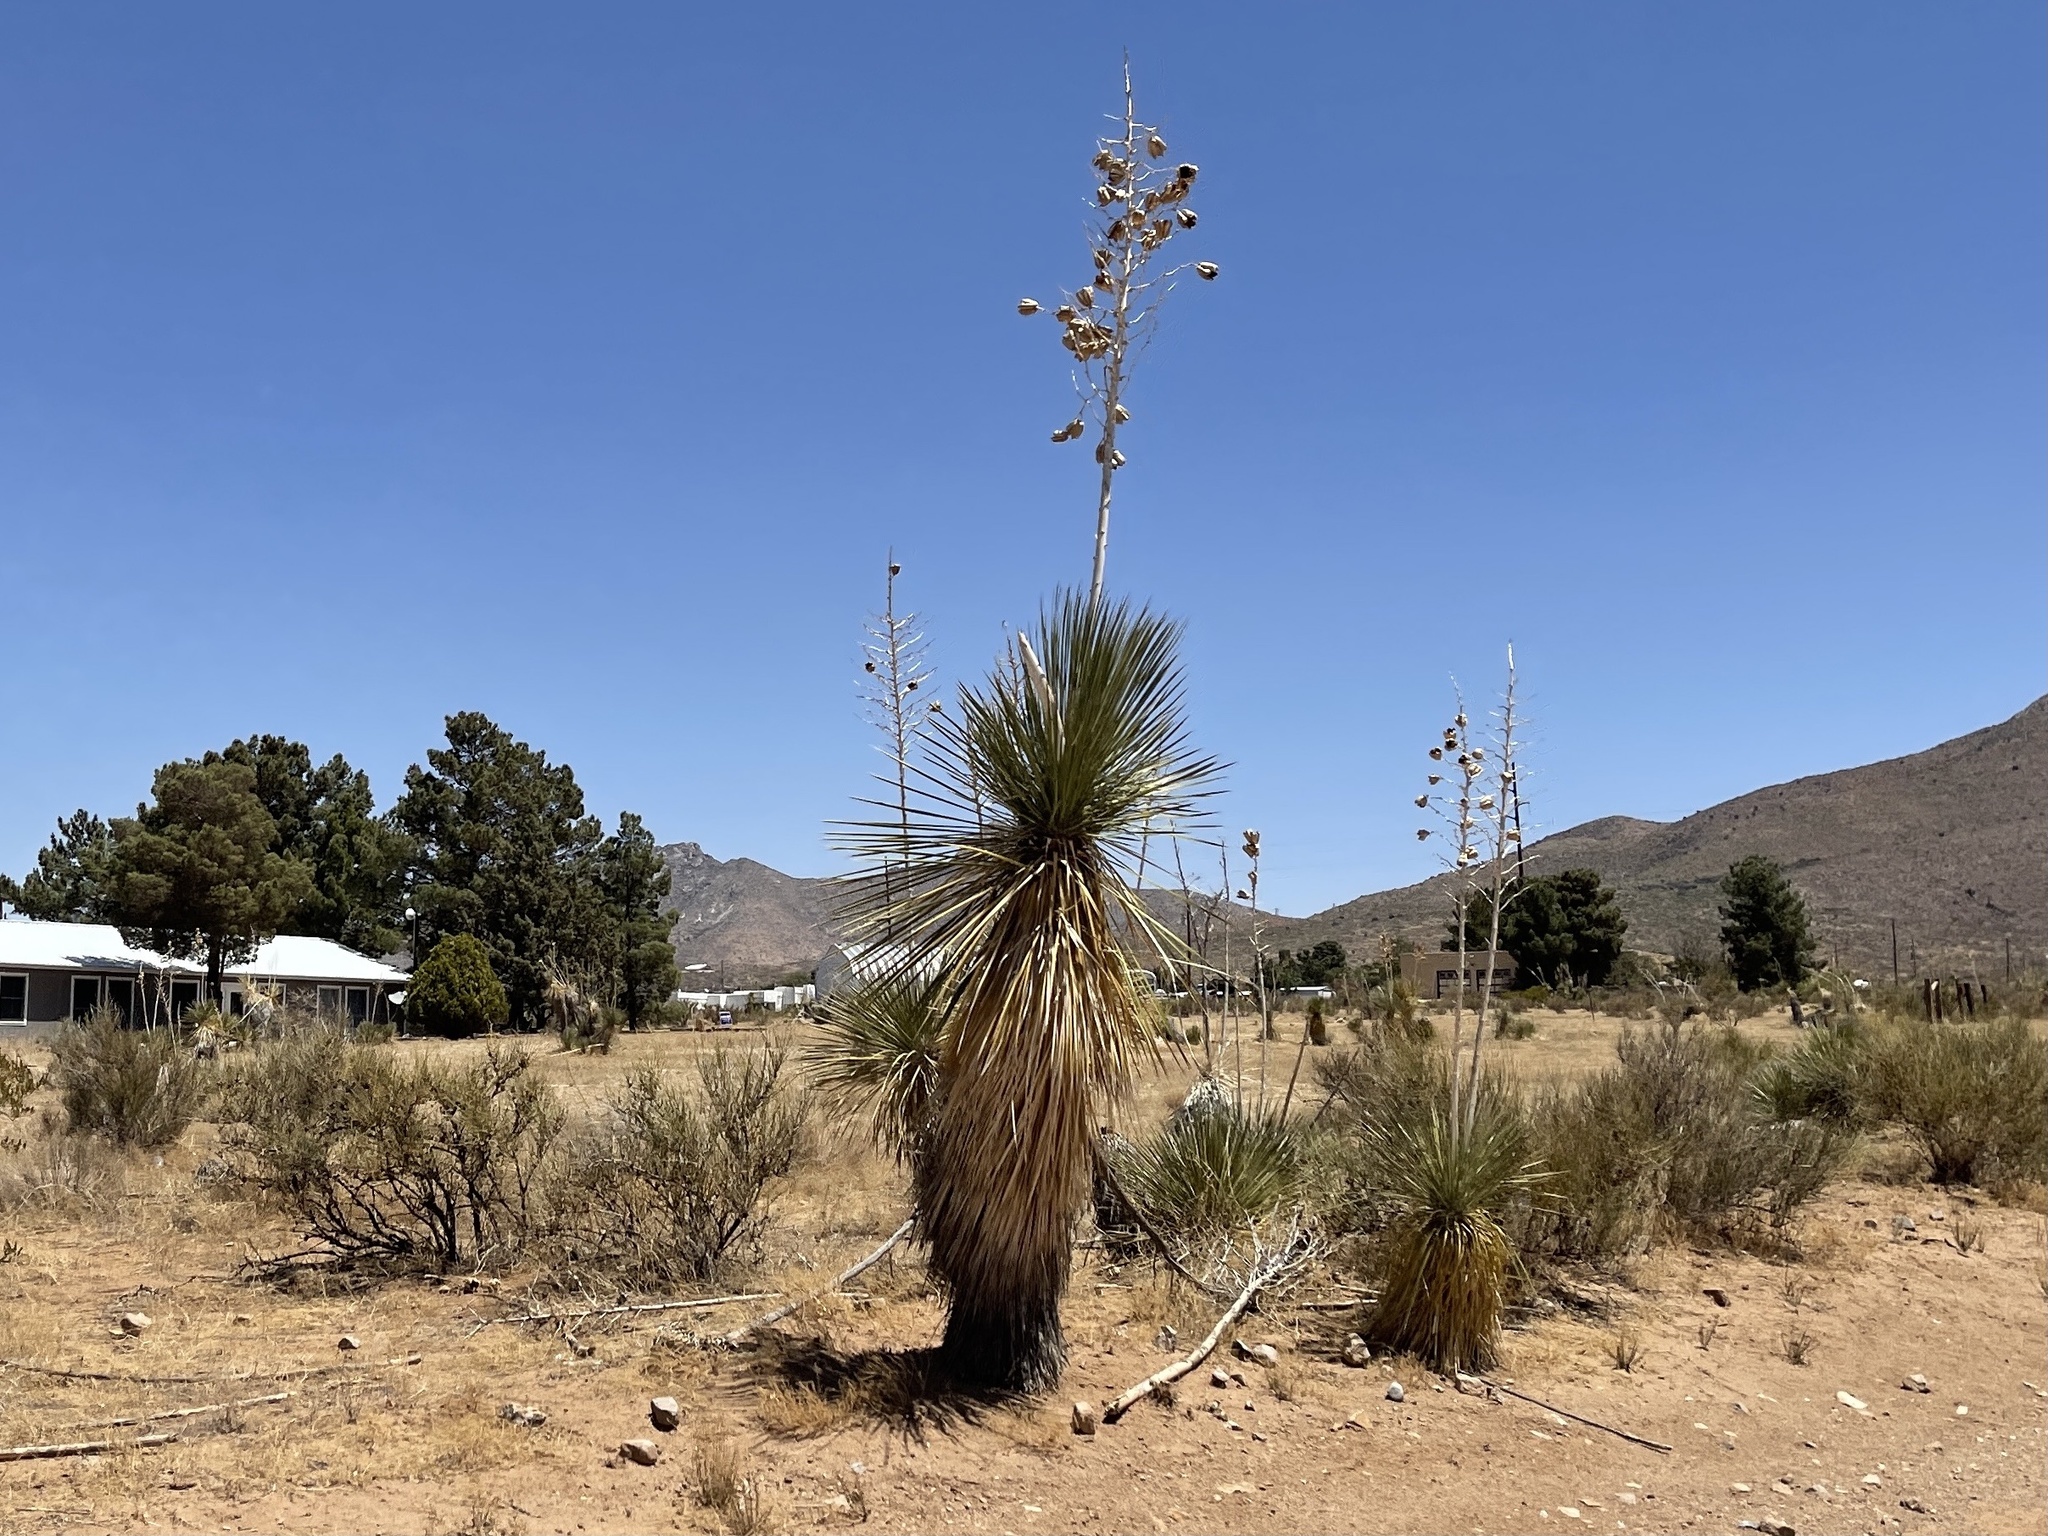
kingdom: Plantae
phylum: Tracheophyta
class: Liliopsida
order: Asparagales
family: Asparagaceae
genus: Yucca
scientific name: Yucca elata
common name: Palmella
